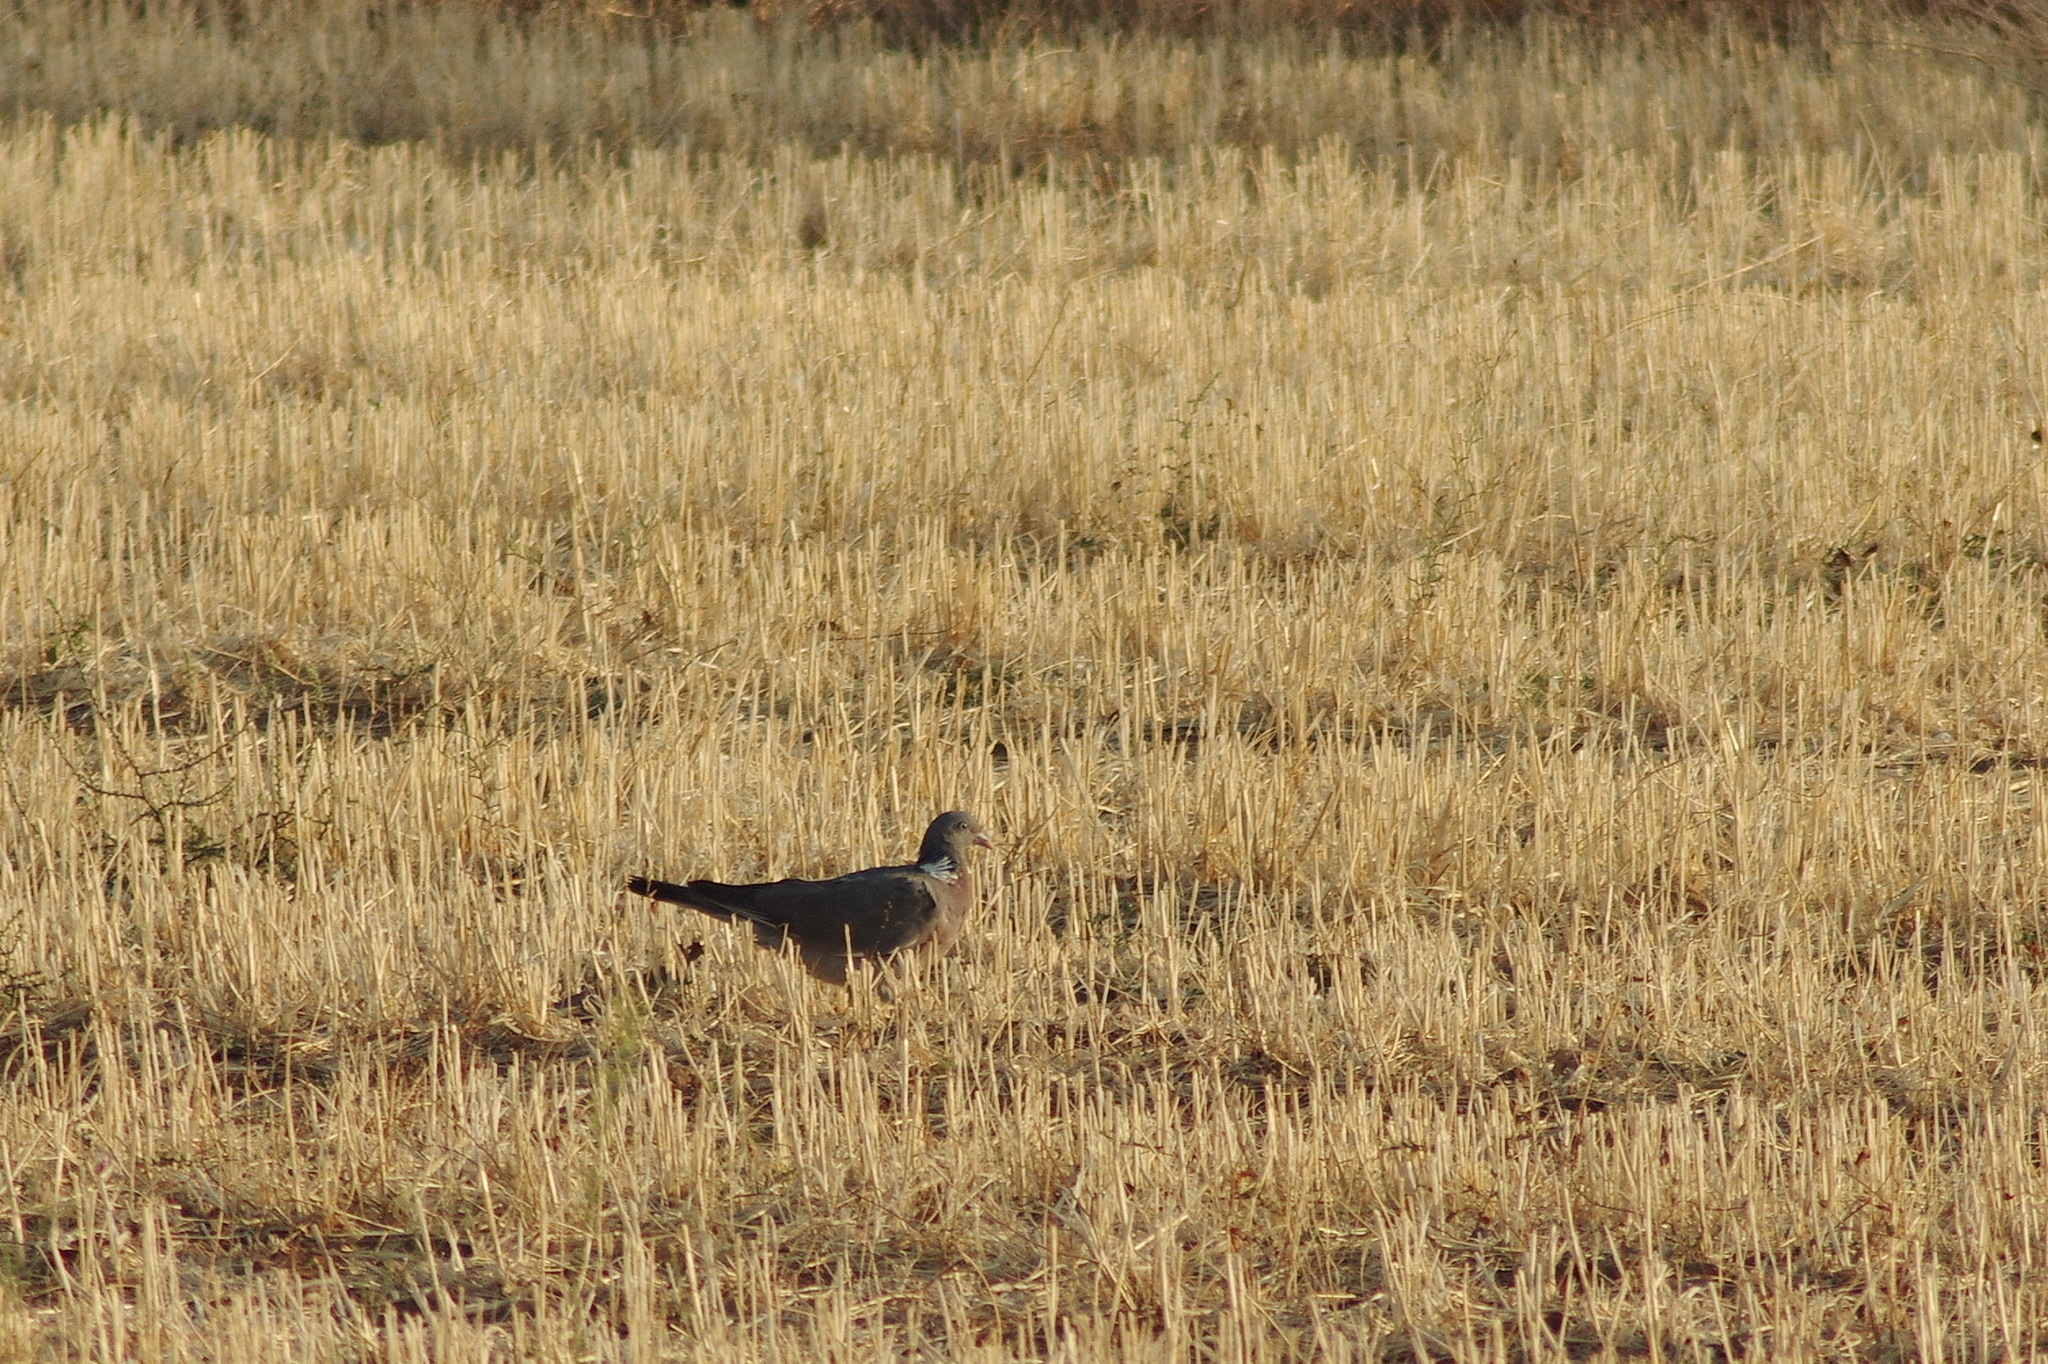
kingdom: Animalia
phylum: Chordata
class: Aves
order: Columbiformes
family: Columbidae
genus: Columba
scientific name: Columba palumbus
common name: Common wood pigeon
